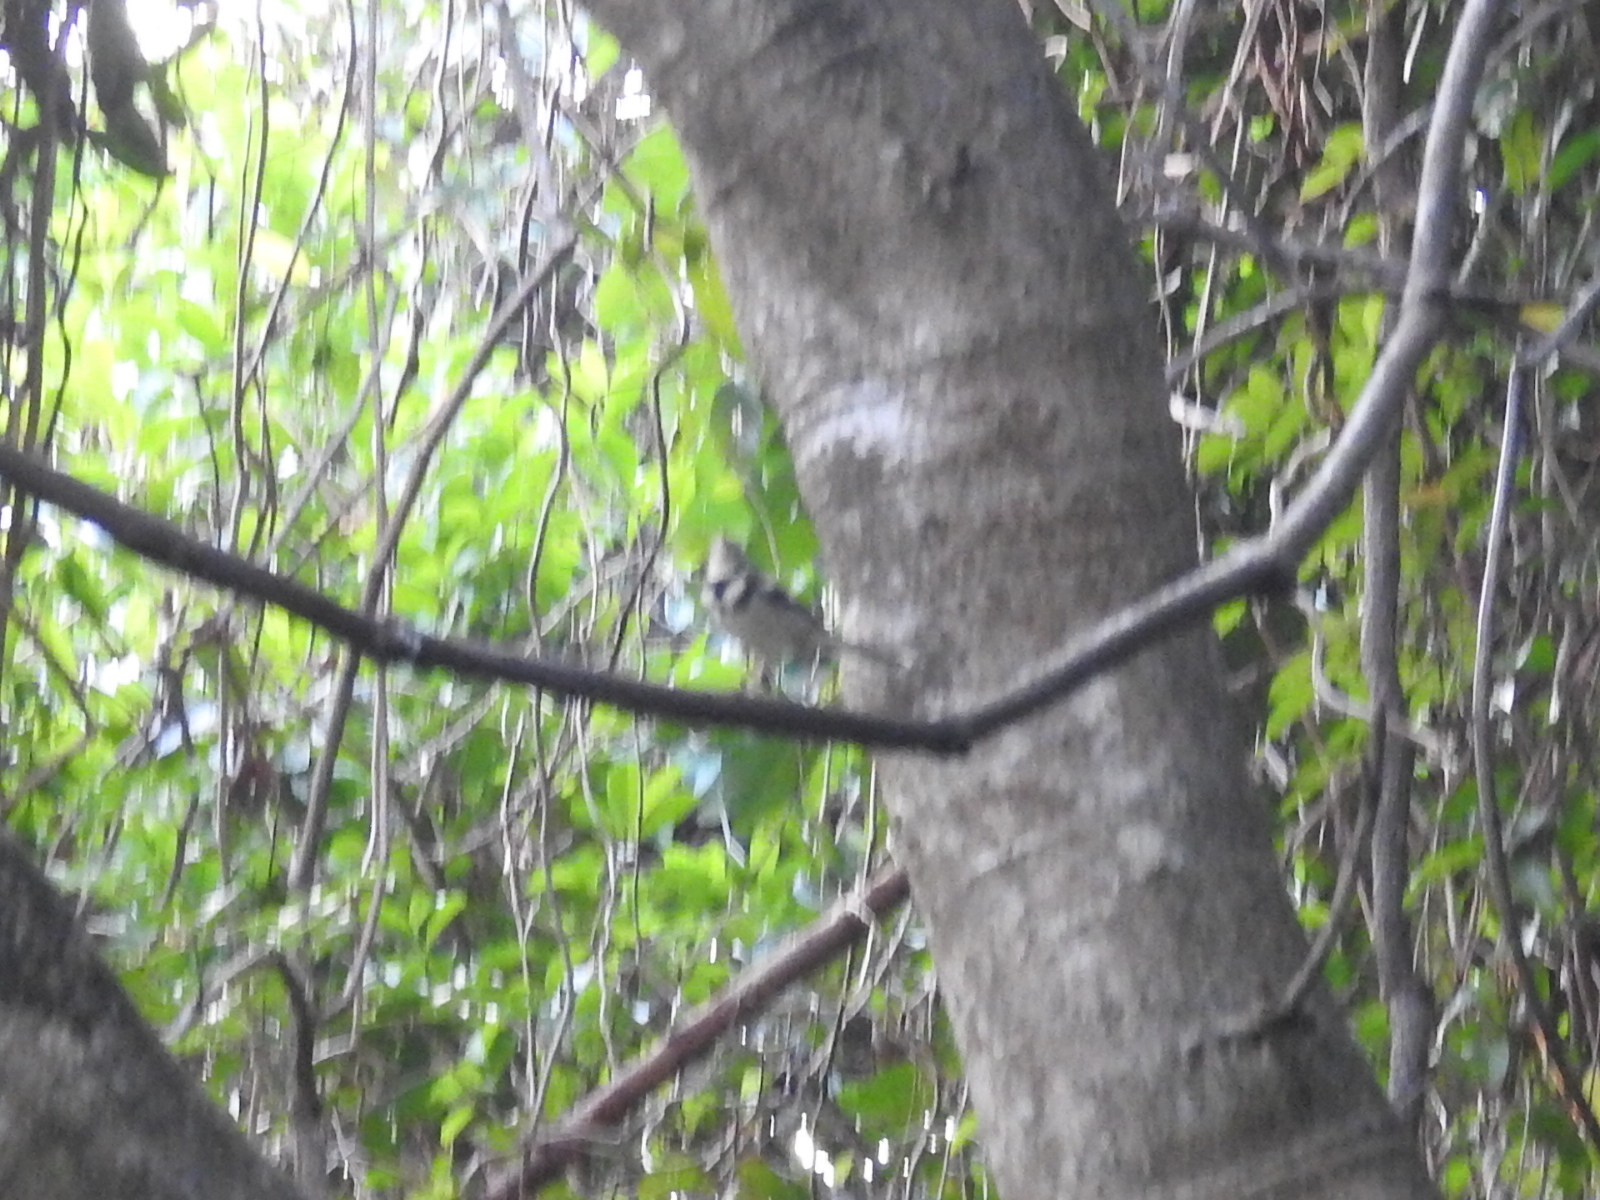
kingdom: Animalia
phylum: Chordata
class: Aves
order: Passeriformes
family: Motacillidae
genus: Dendronanthus
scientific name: Dendronanthus indicus
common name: Forest wagtail
